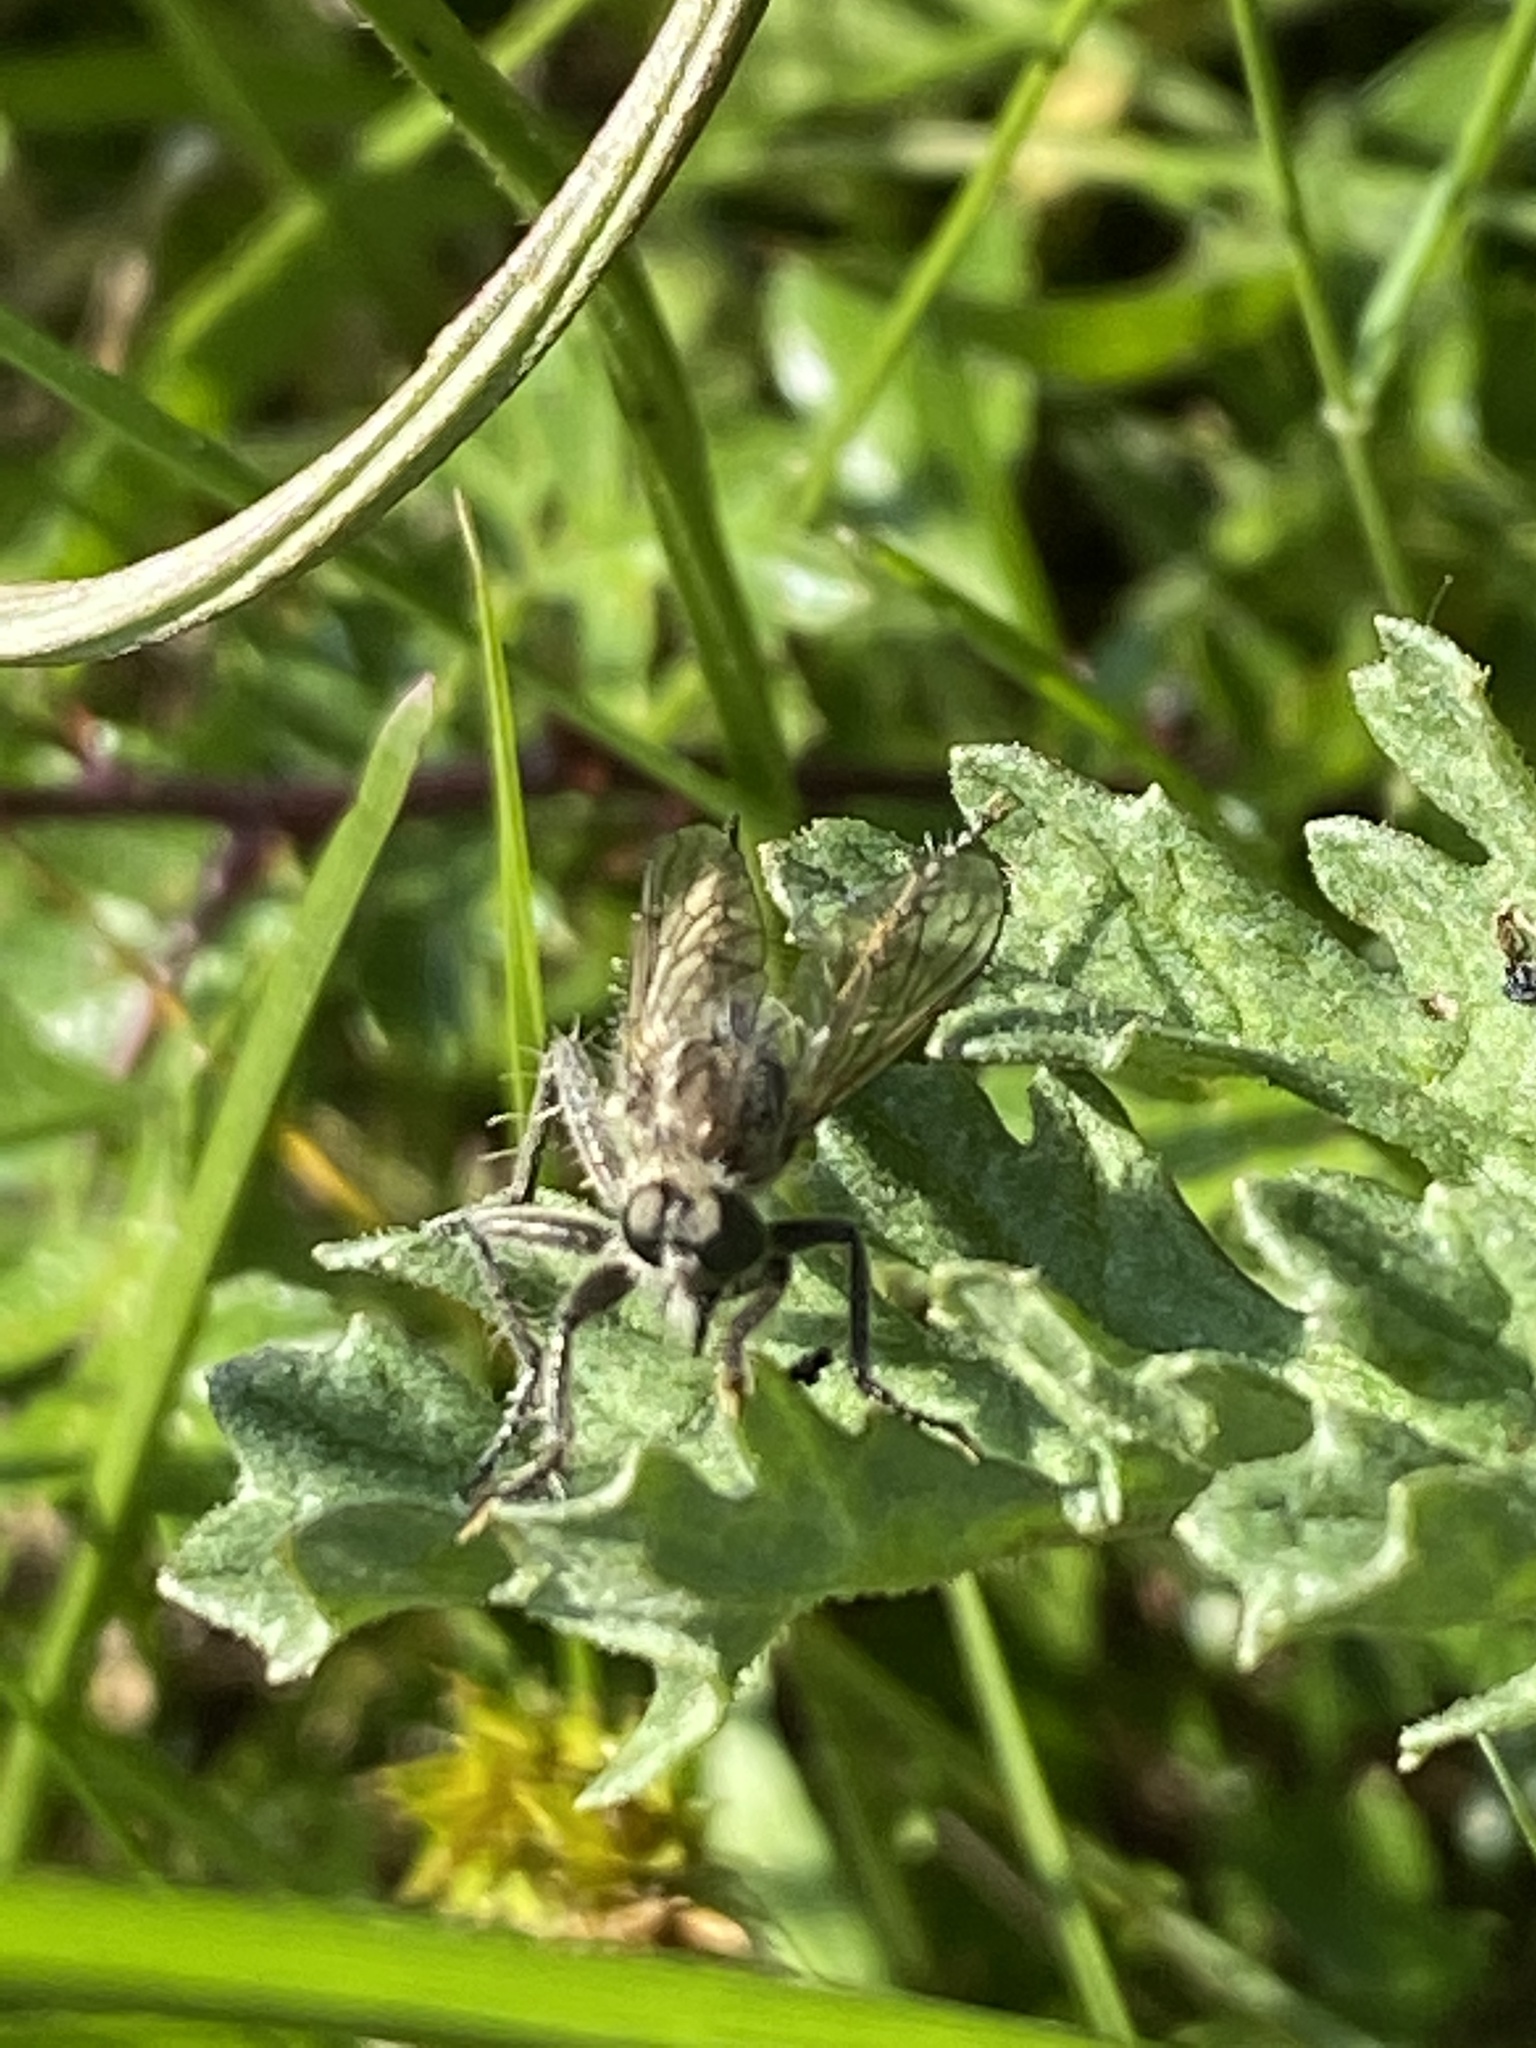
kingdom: Animalia
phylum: Arthropoda
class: Insecta
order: Diptera
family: Asilidae
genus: Dysmachus
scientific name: Dysmachus trigonus
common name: Fan-bristled robberfly
